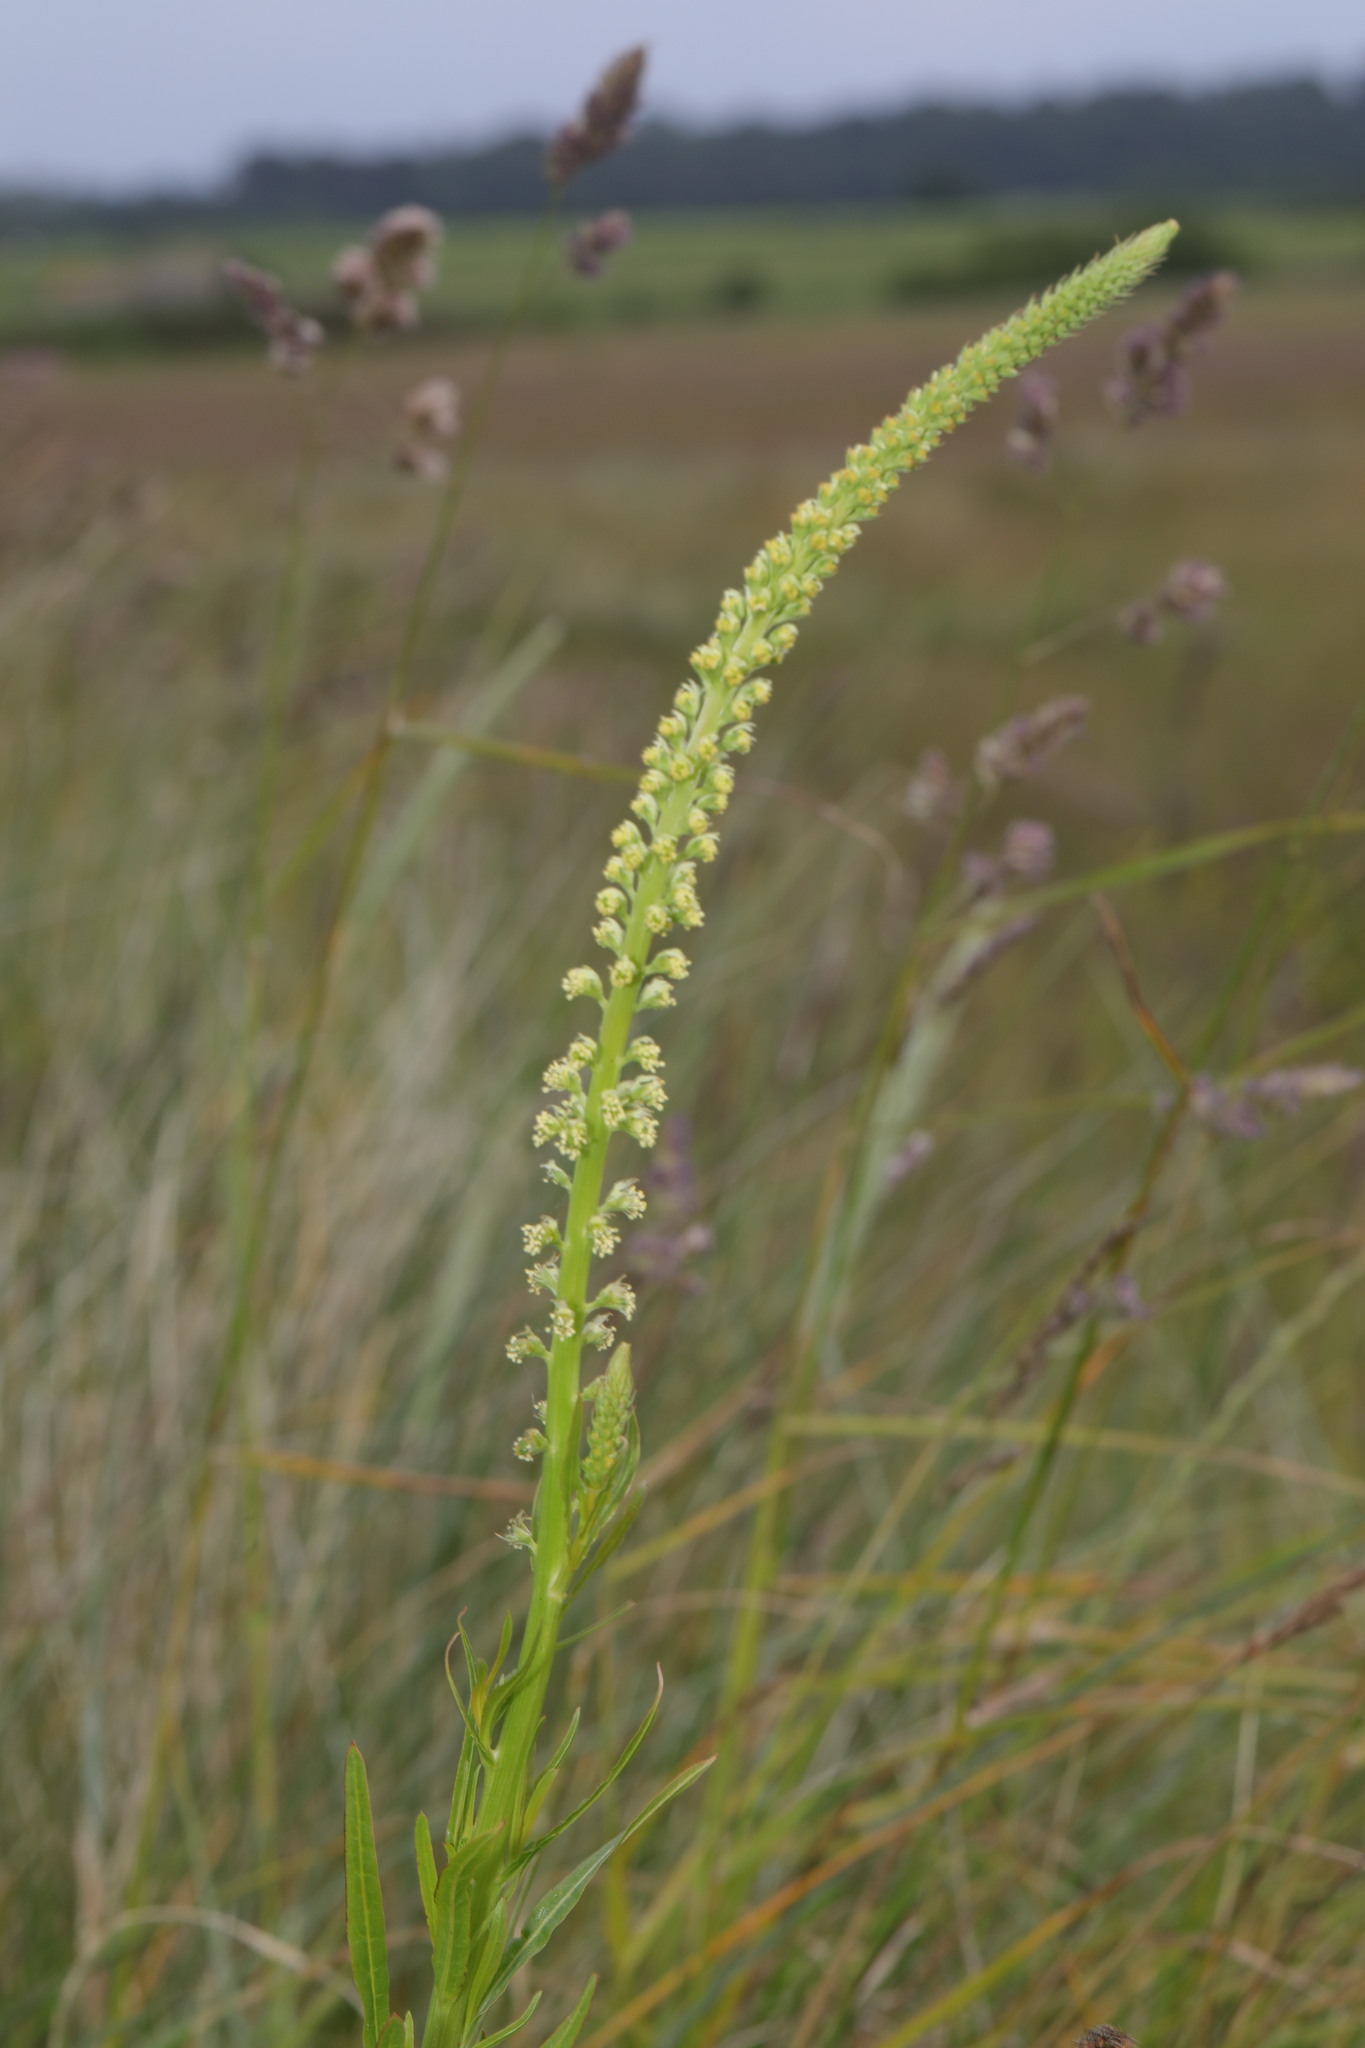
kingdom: Plantae
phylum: Tracheophyta
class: Magnoliopsida
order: Brassicales
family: Resedaceae
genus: Reseda
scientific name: Reseda luteola
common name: Weld
